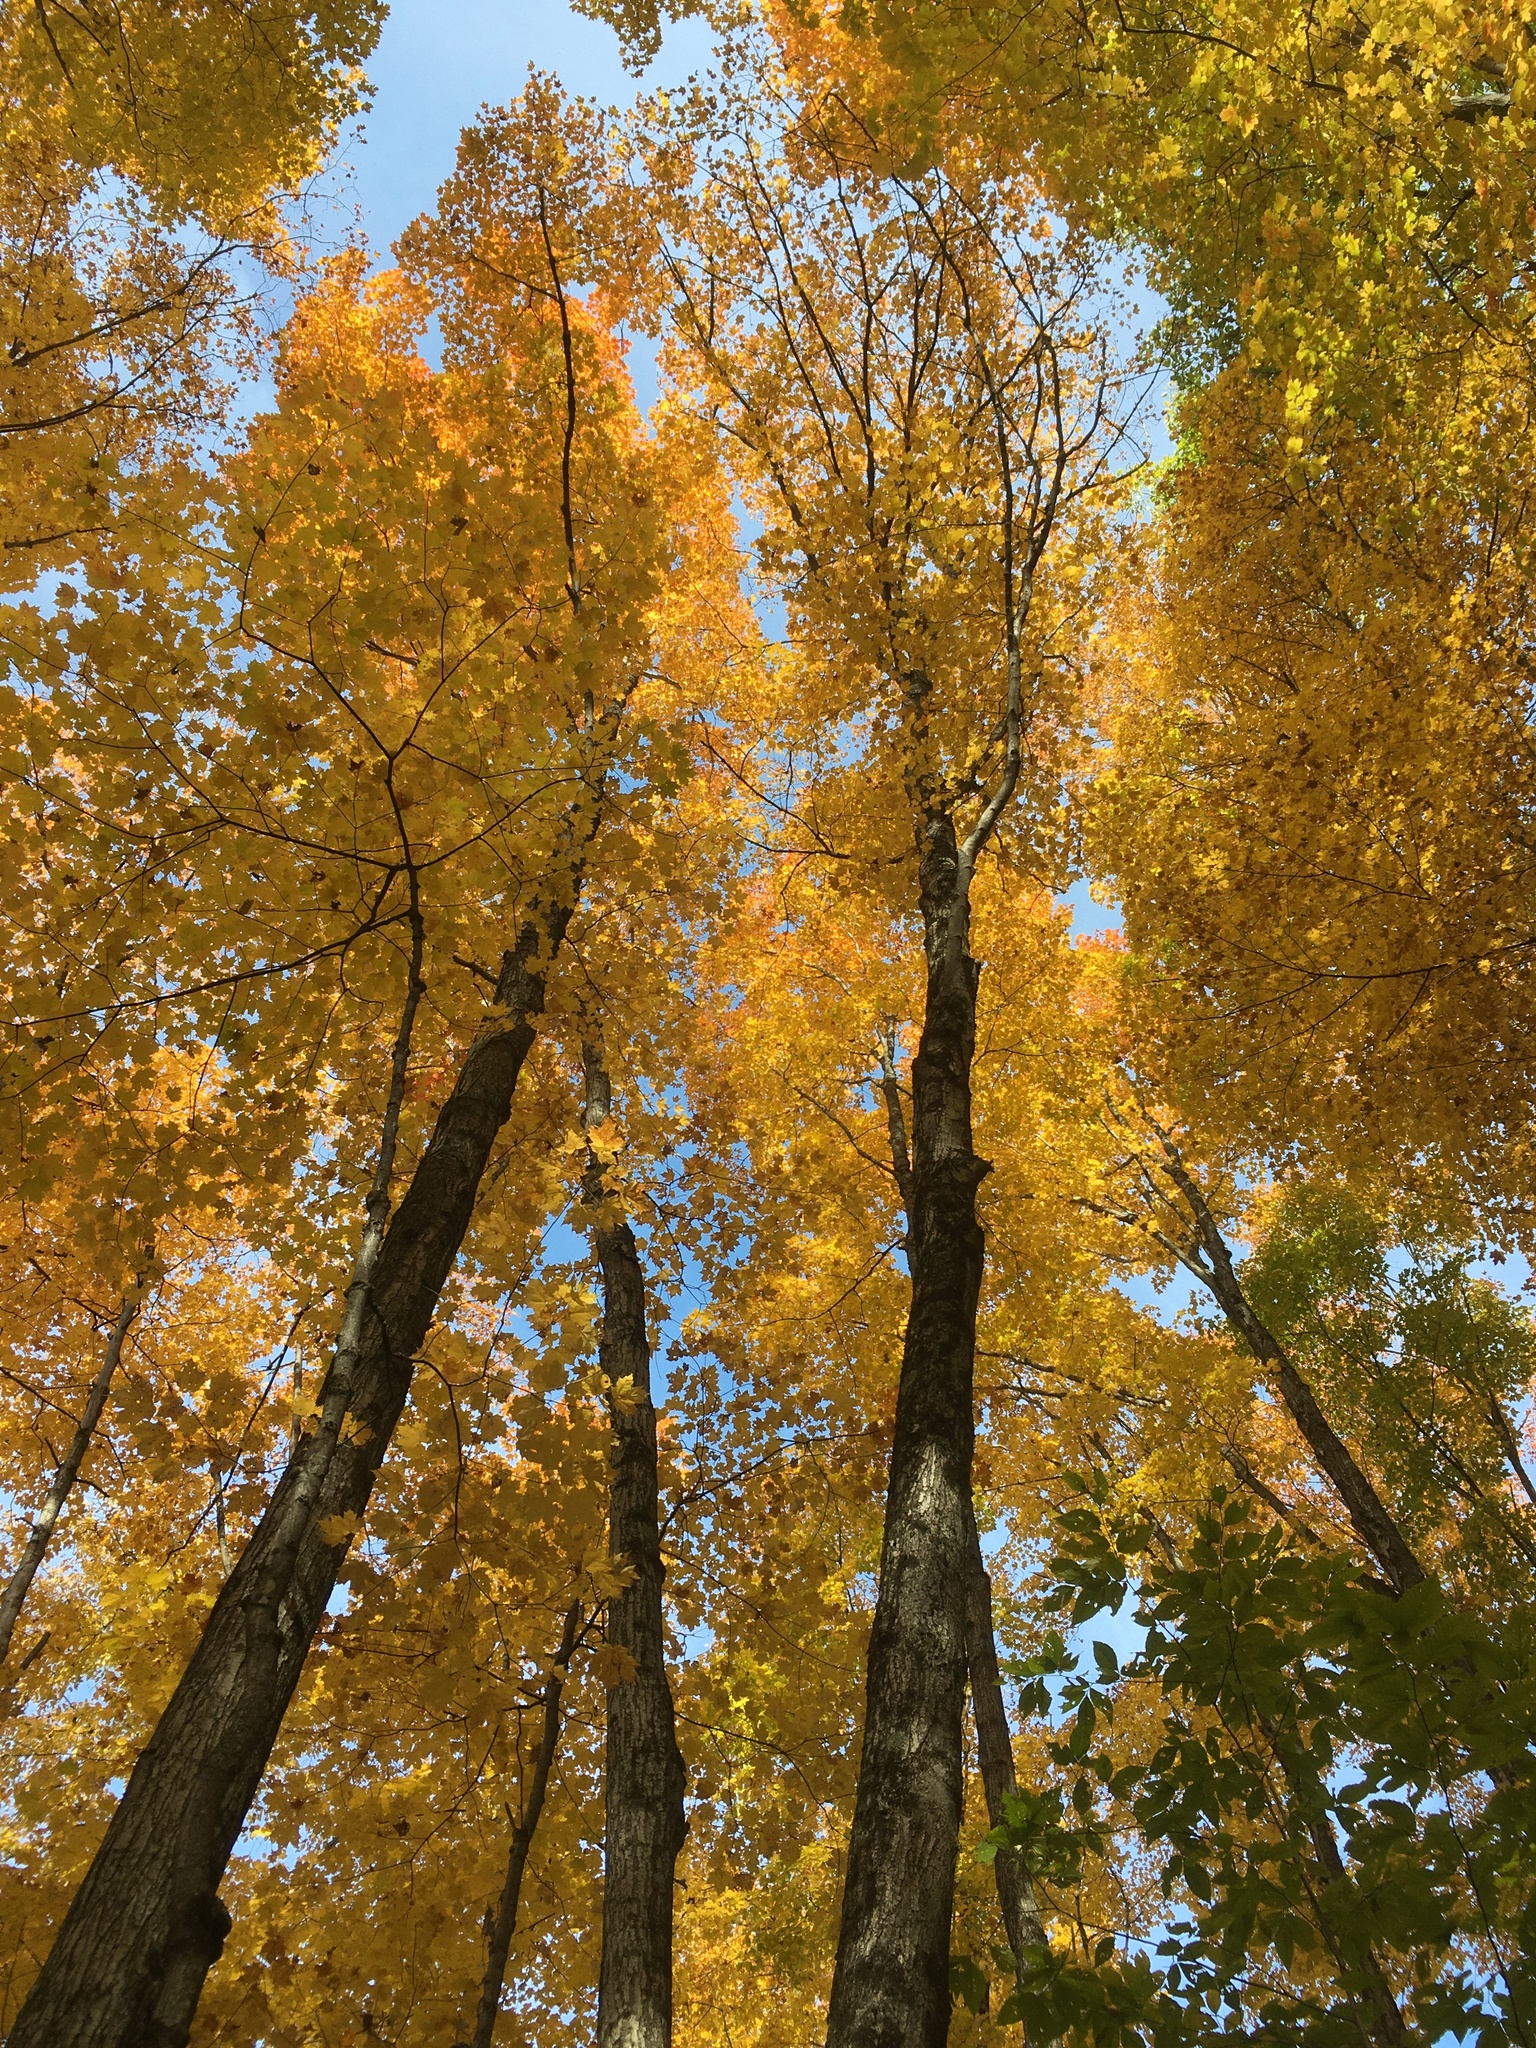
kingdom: Plantae
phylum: Tracheophyta
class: Magnoliopsida
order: Sapindales
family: Sapindaceae
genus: Acer
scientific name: Acer saccharum
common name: Sugar maple
